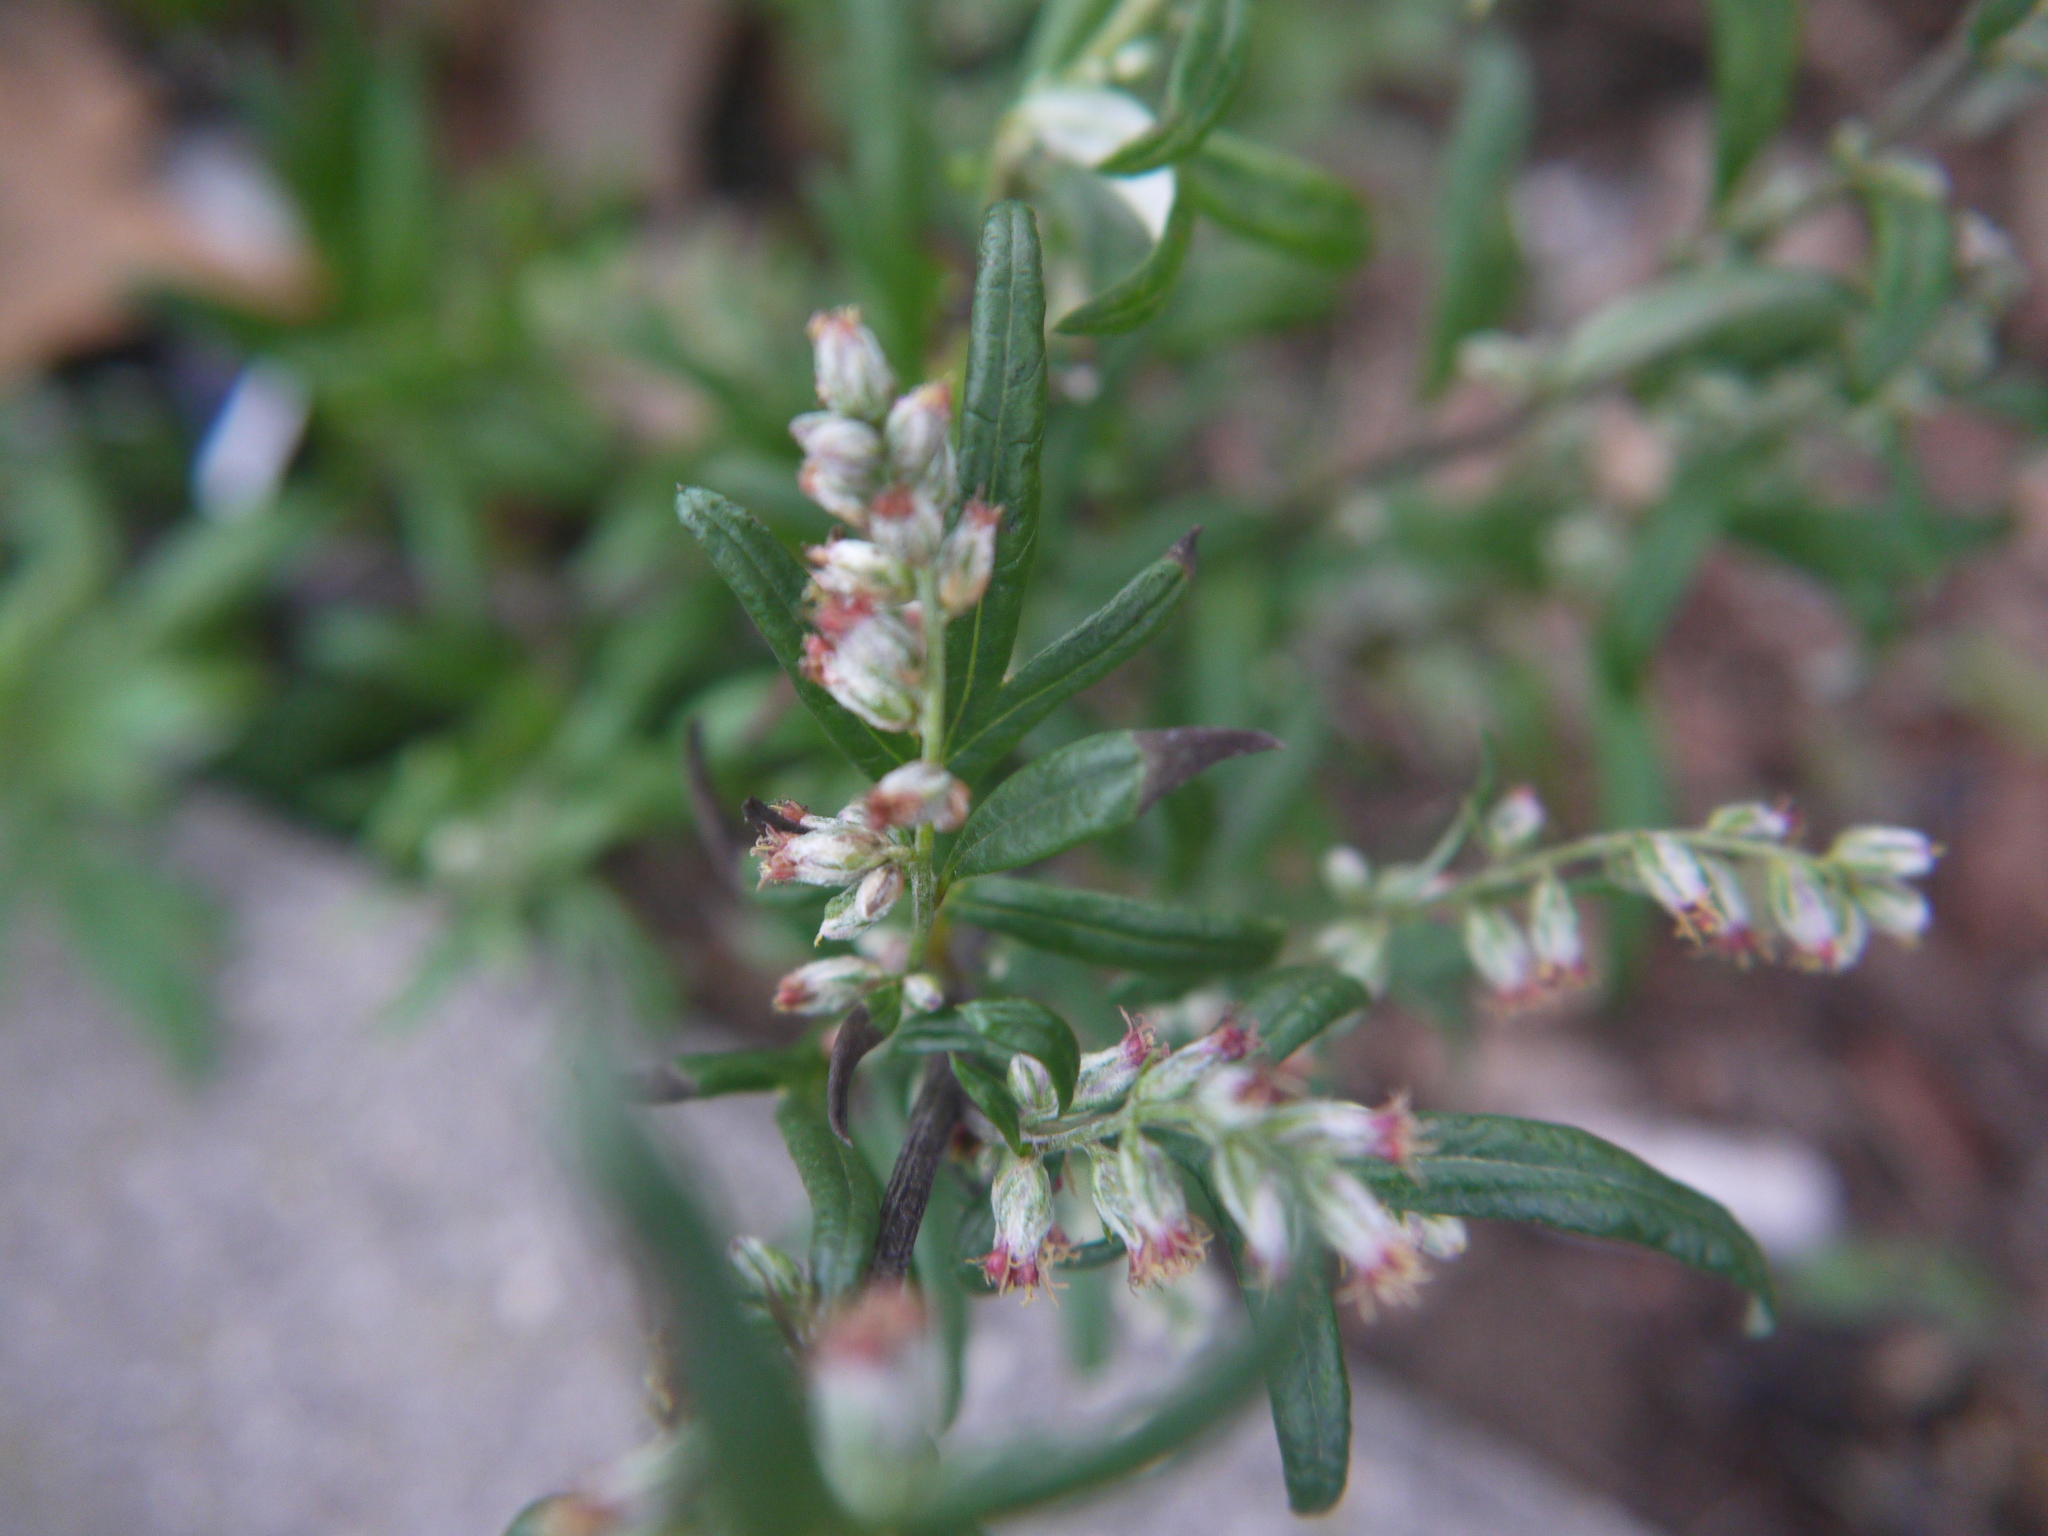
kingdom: Plantae
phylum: Tracheophyta
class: Magnoliopsida
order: Asterales
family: Asteraceae
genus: Artemisia
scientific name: Artemisia vulgaris
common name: Mugwort
